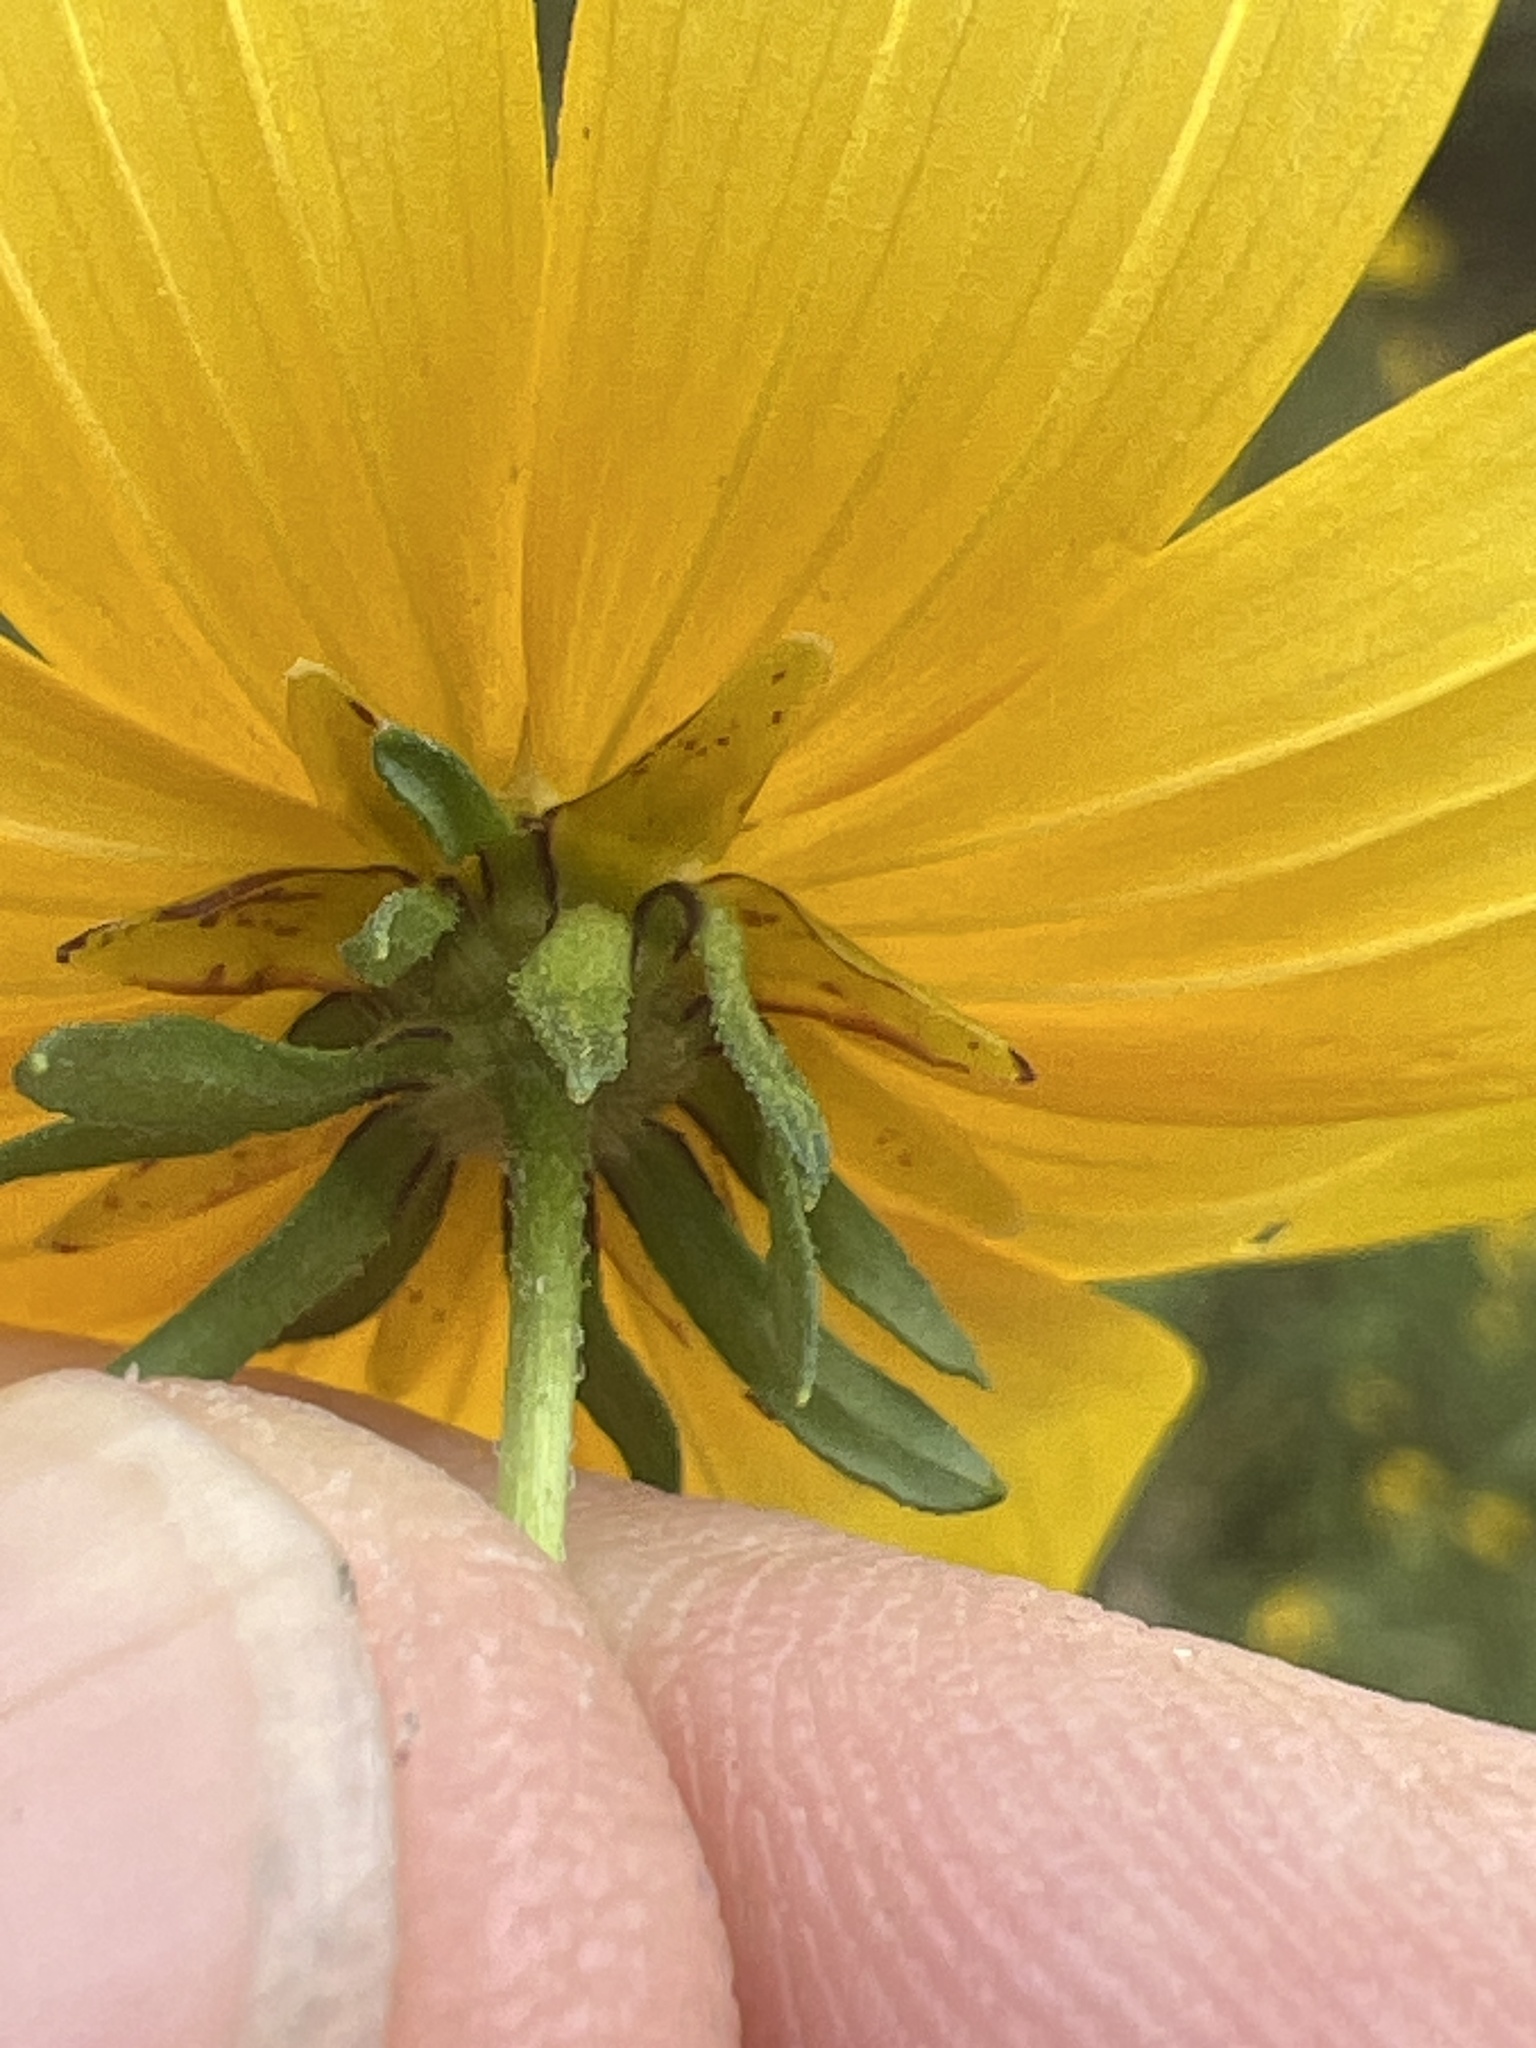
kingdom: Plantae
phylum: Tracheophyta
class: Magnoliopsida
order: Asterales
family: Asteraceae
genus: Bidens
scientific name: Bidens polylepis
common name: Awnless beggarticks
